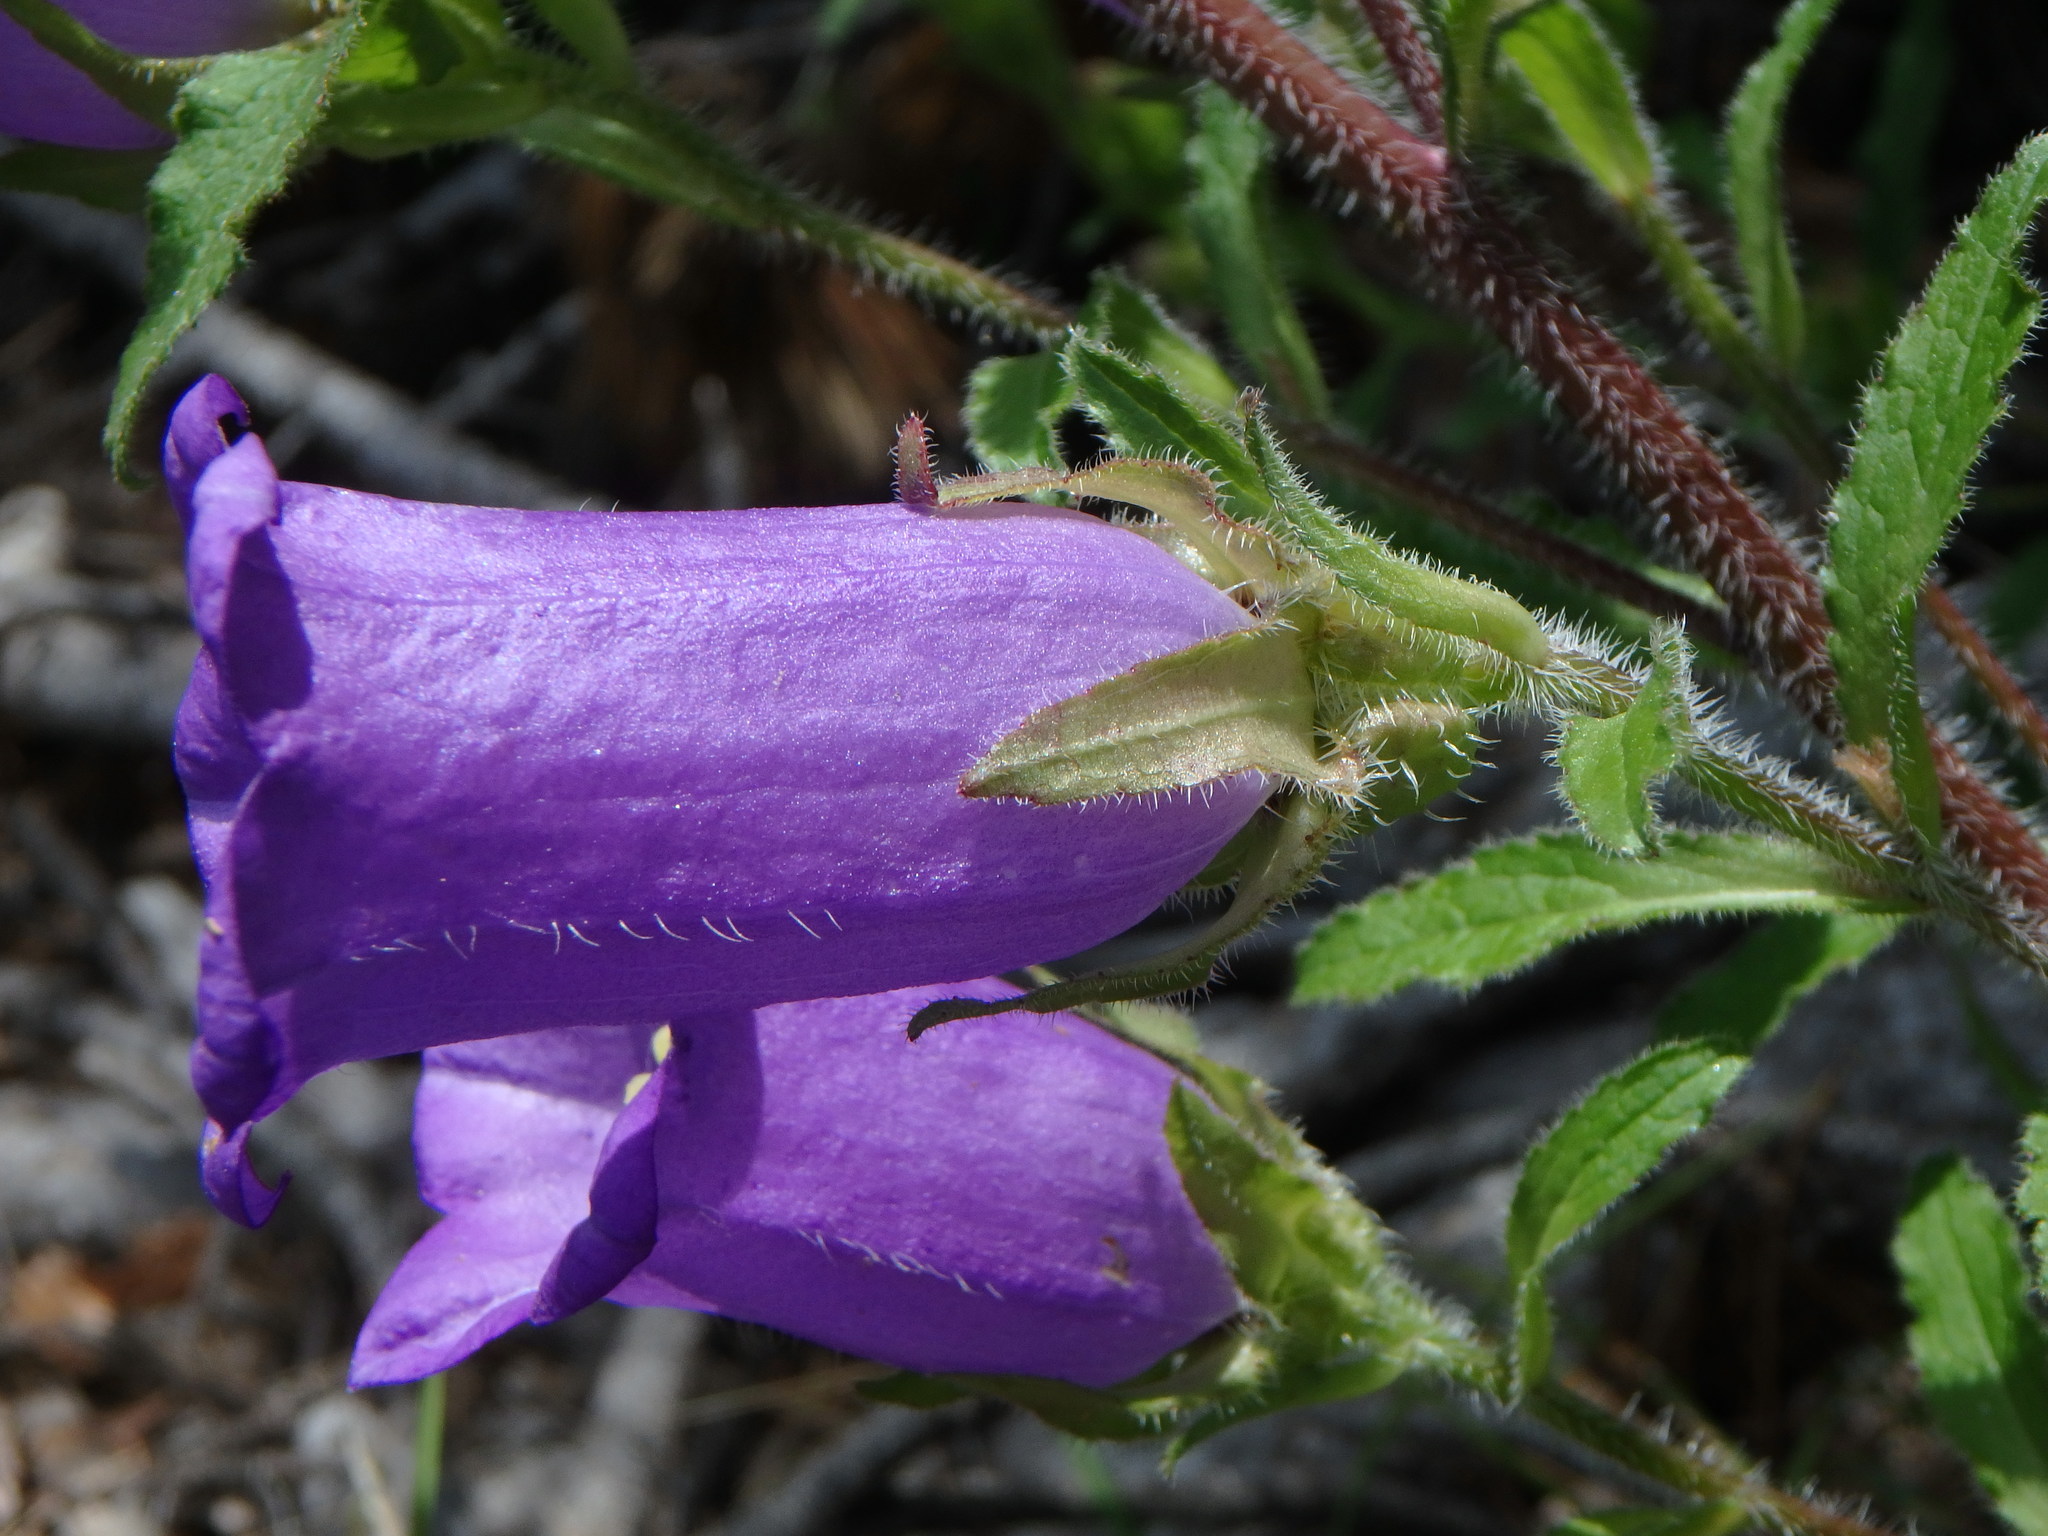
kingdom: Plantae
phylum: Tracheophyta
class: Magnoliopsida
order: Asterales
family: Campanulaceae
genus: Campanula
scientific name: Campanula medium
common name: Canterbury bells
